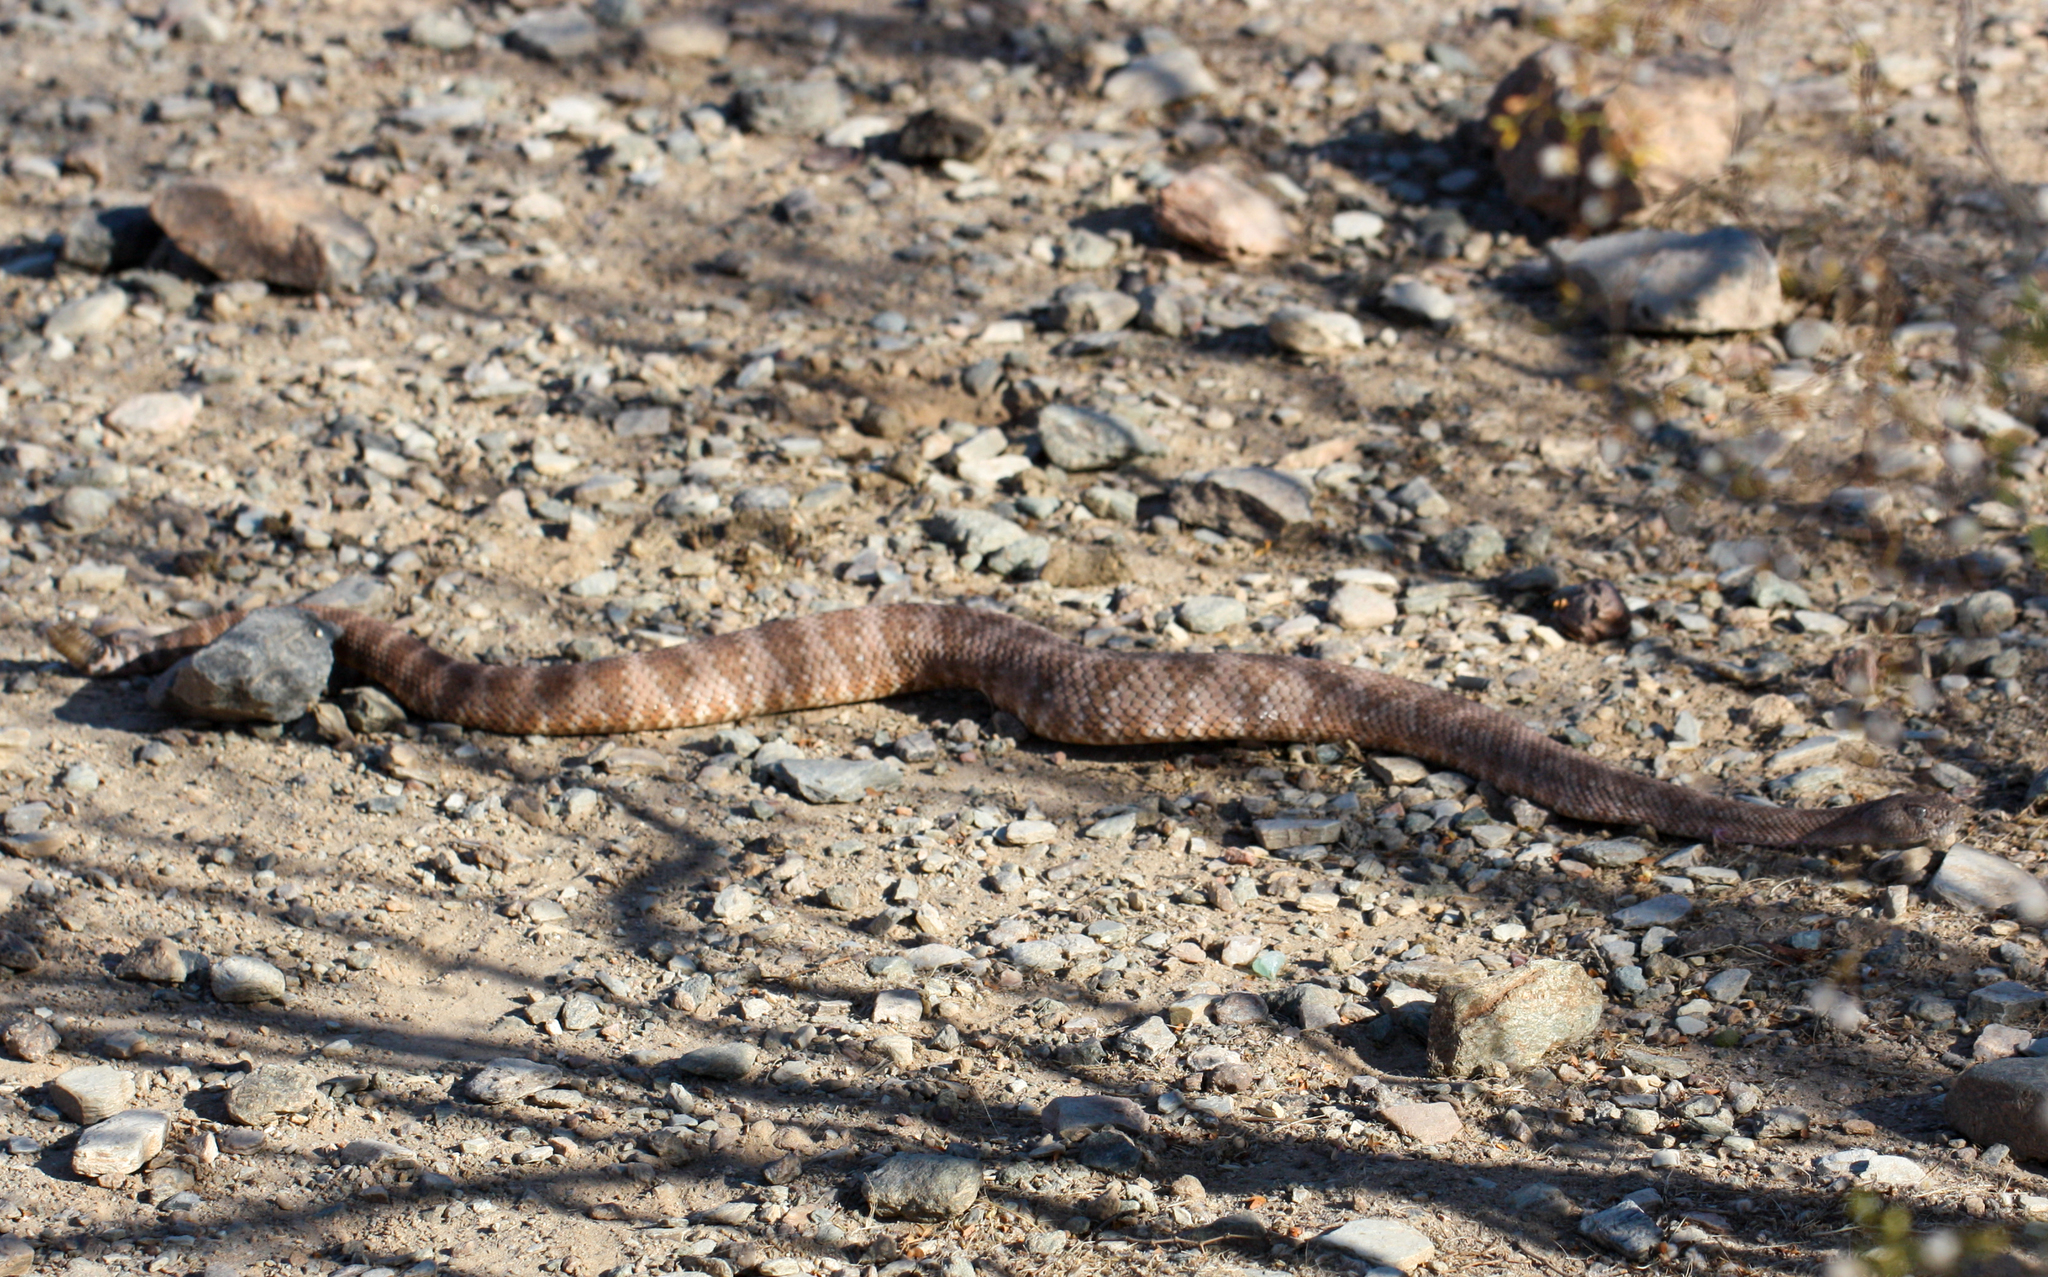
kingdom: Animalia
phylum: Chordata
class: Squamata
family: Viperidae
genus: Crotalus
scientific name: Crotalus pyrrhus
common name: Southwestern speckled rattlesnake
